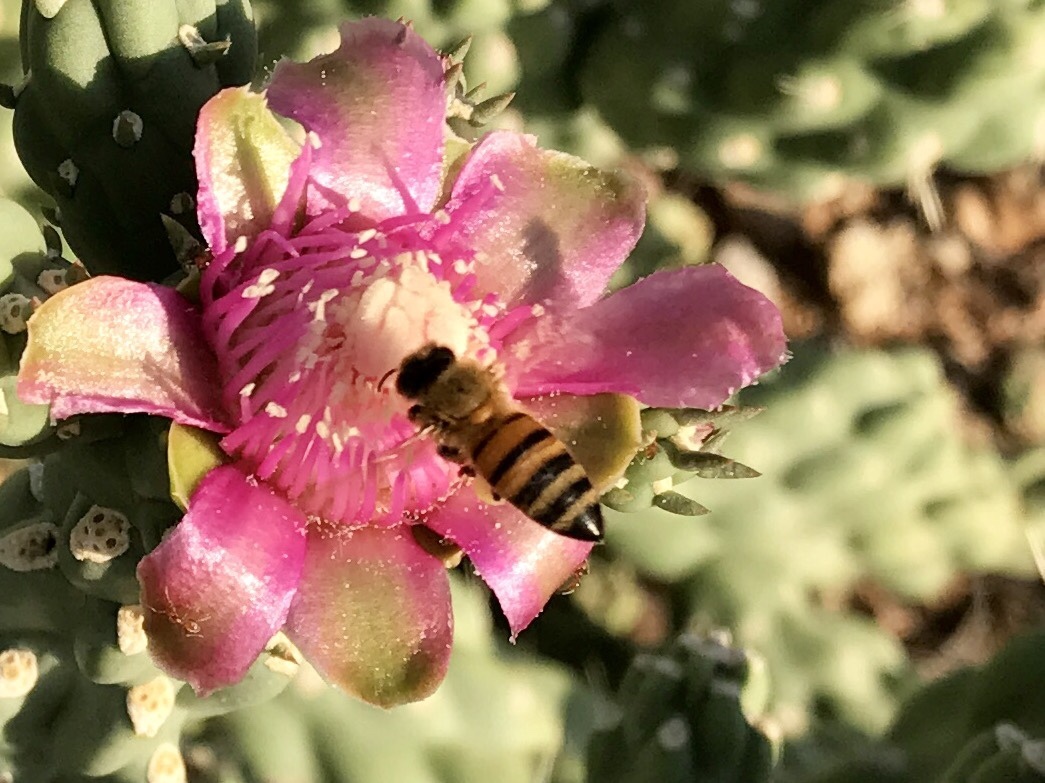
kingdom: Animalia
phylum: Arthropoda
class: Insecta
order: Hymenoptera
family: Apidae
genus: Apis
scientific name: Apis mellifera
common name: Honey bee
